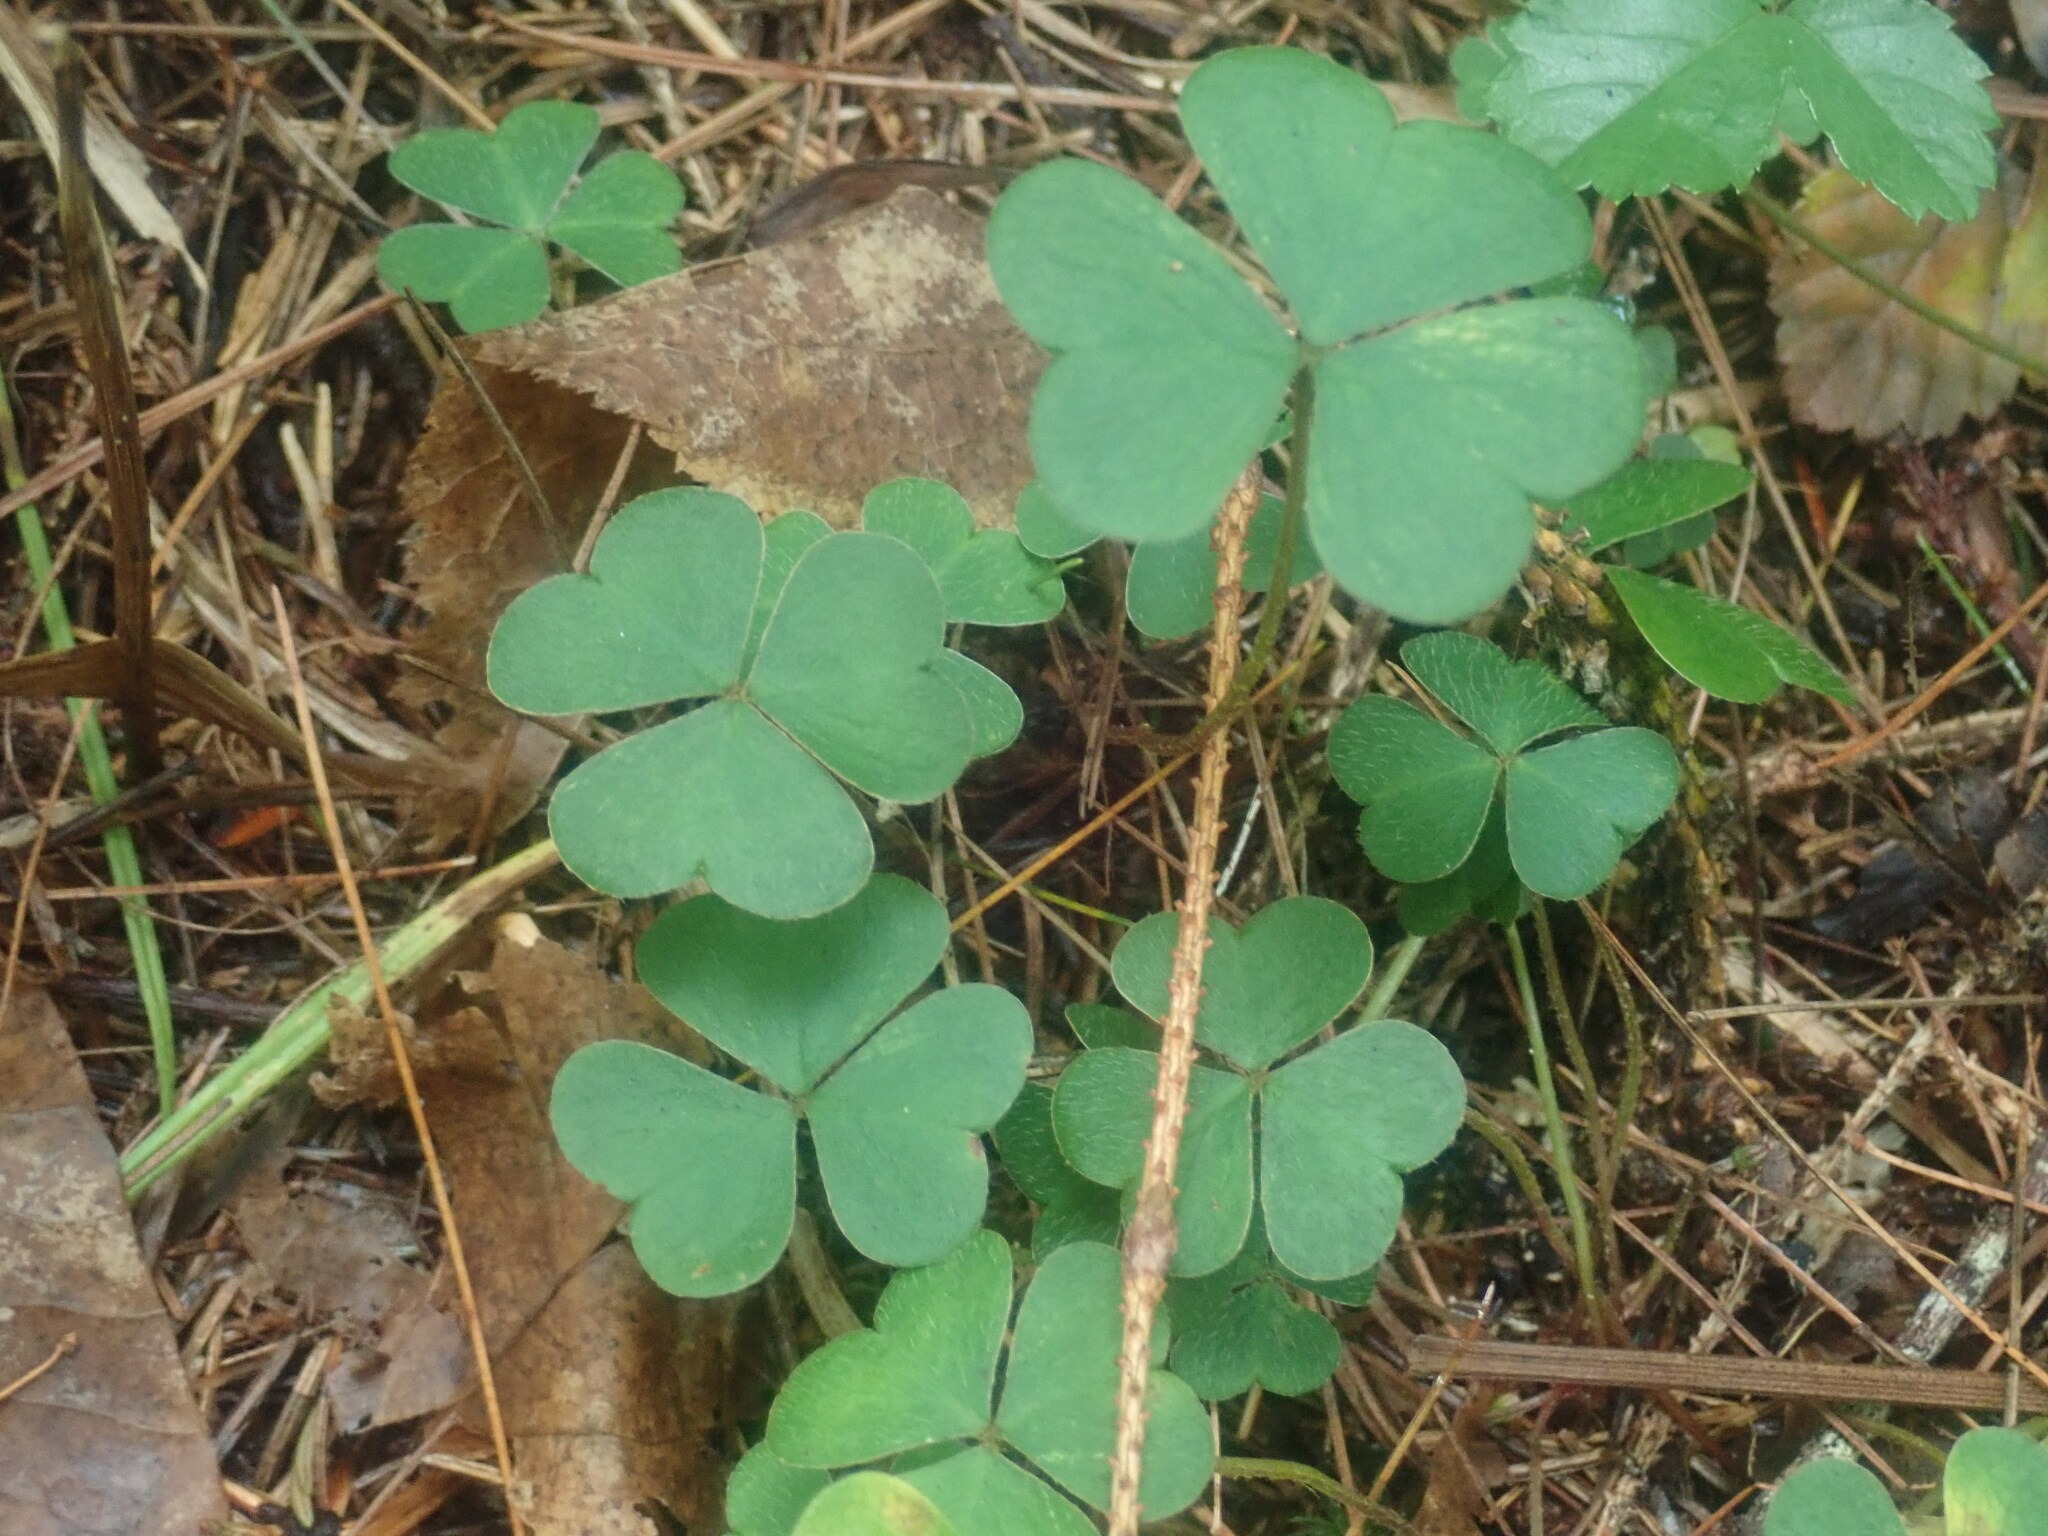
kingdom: Plantae
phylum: Tracheophyta
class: Magnoliopsida
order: Oxalidales
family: Oxalidaceae
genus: Oxalis
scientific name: Oxalis montana
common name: American wood-sorrel
